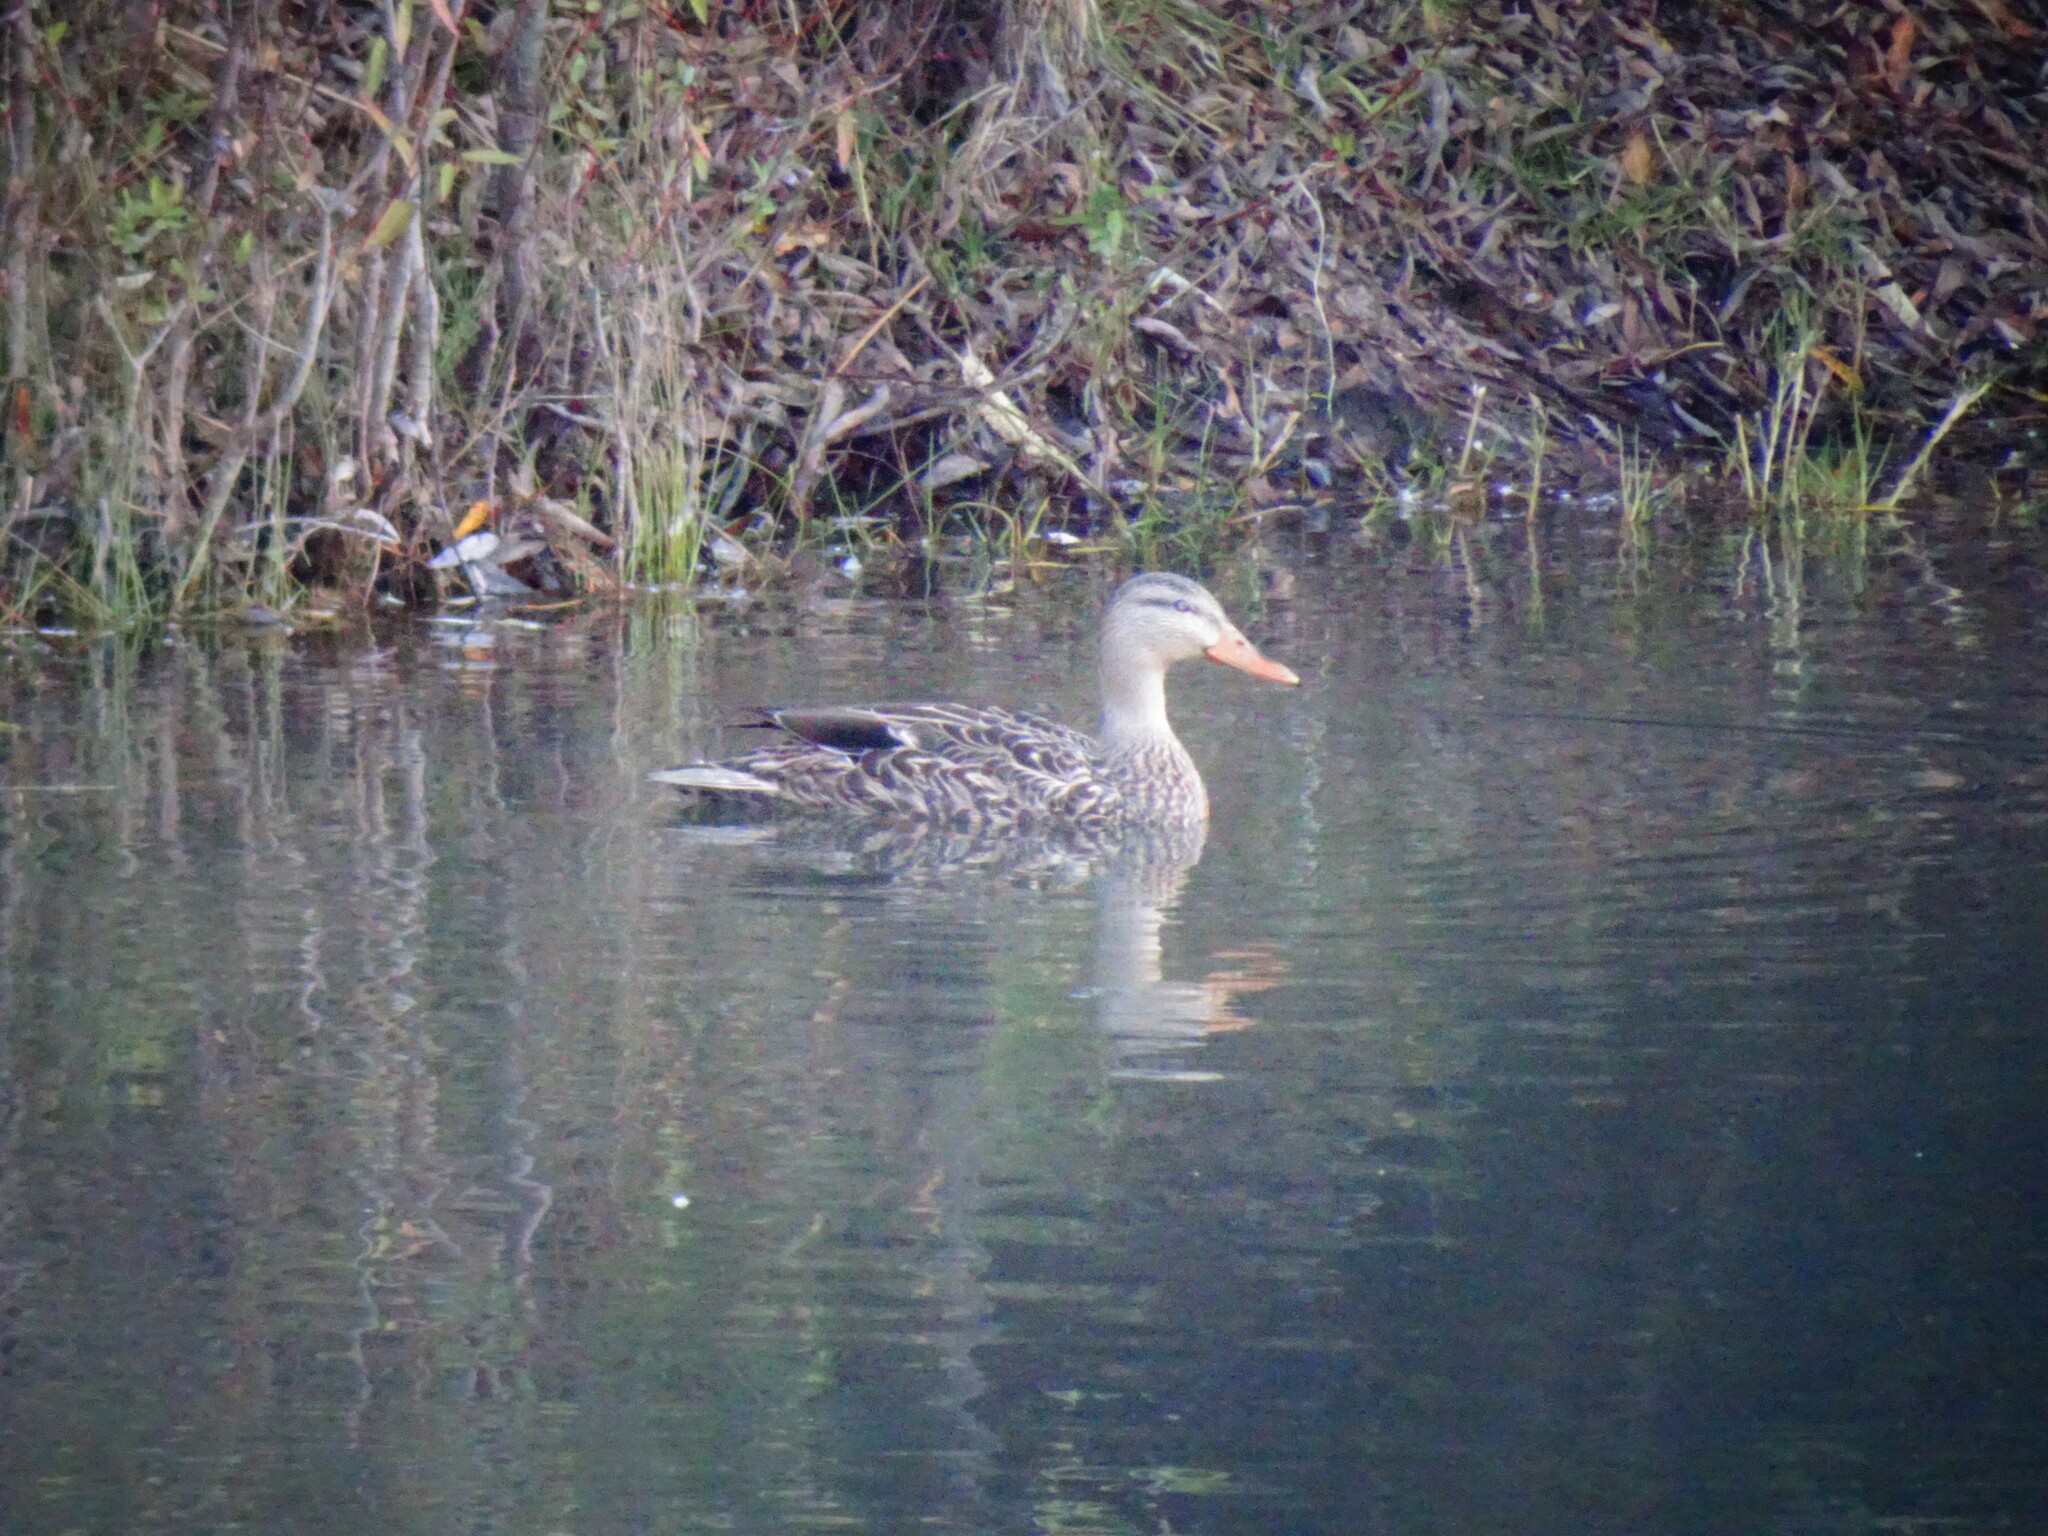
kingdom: Animalia
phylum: Chordata
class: Aves
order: Anseriformes
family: Anatidae
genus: Anas
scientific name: Anas diazi
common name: Mexican duck
